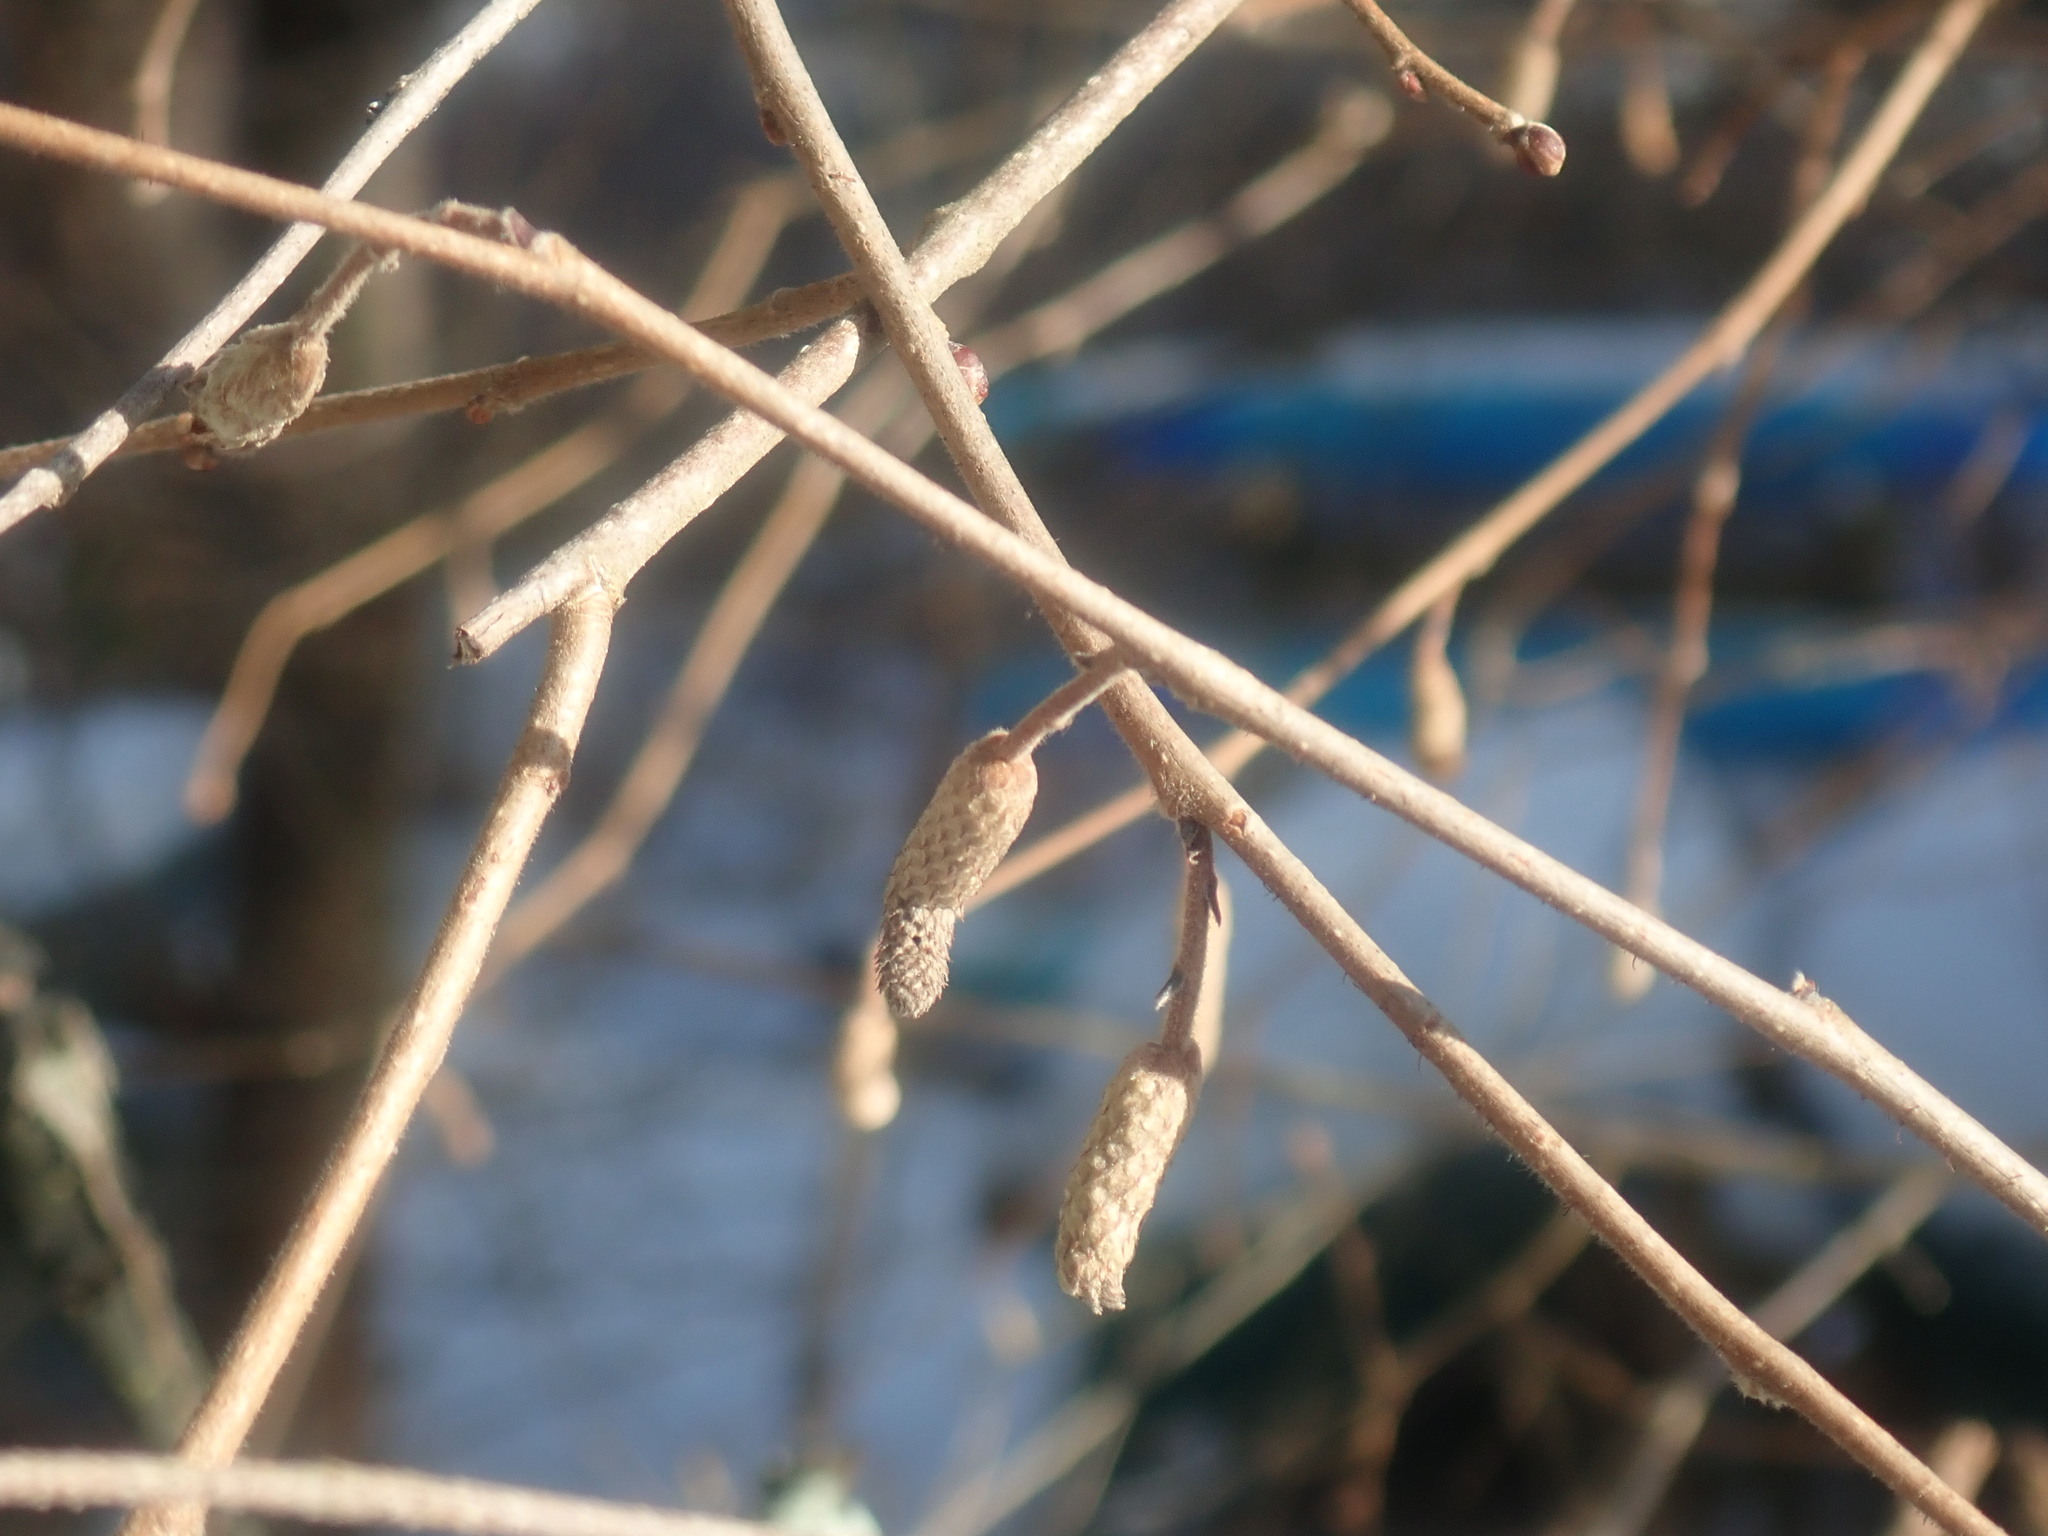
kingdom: Plantae
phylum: Tracheophyta
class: Magnoliopsida
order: Fagales
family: Betulaceae
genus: Corylus
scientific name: Corylus americana
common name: American hazel
